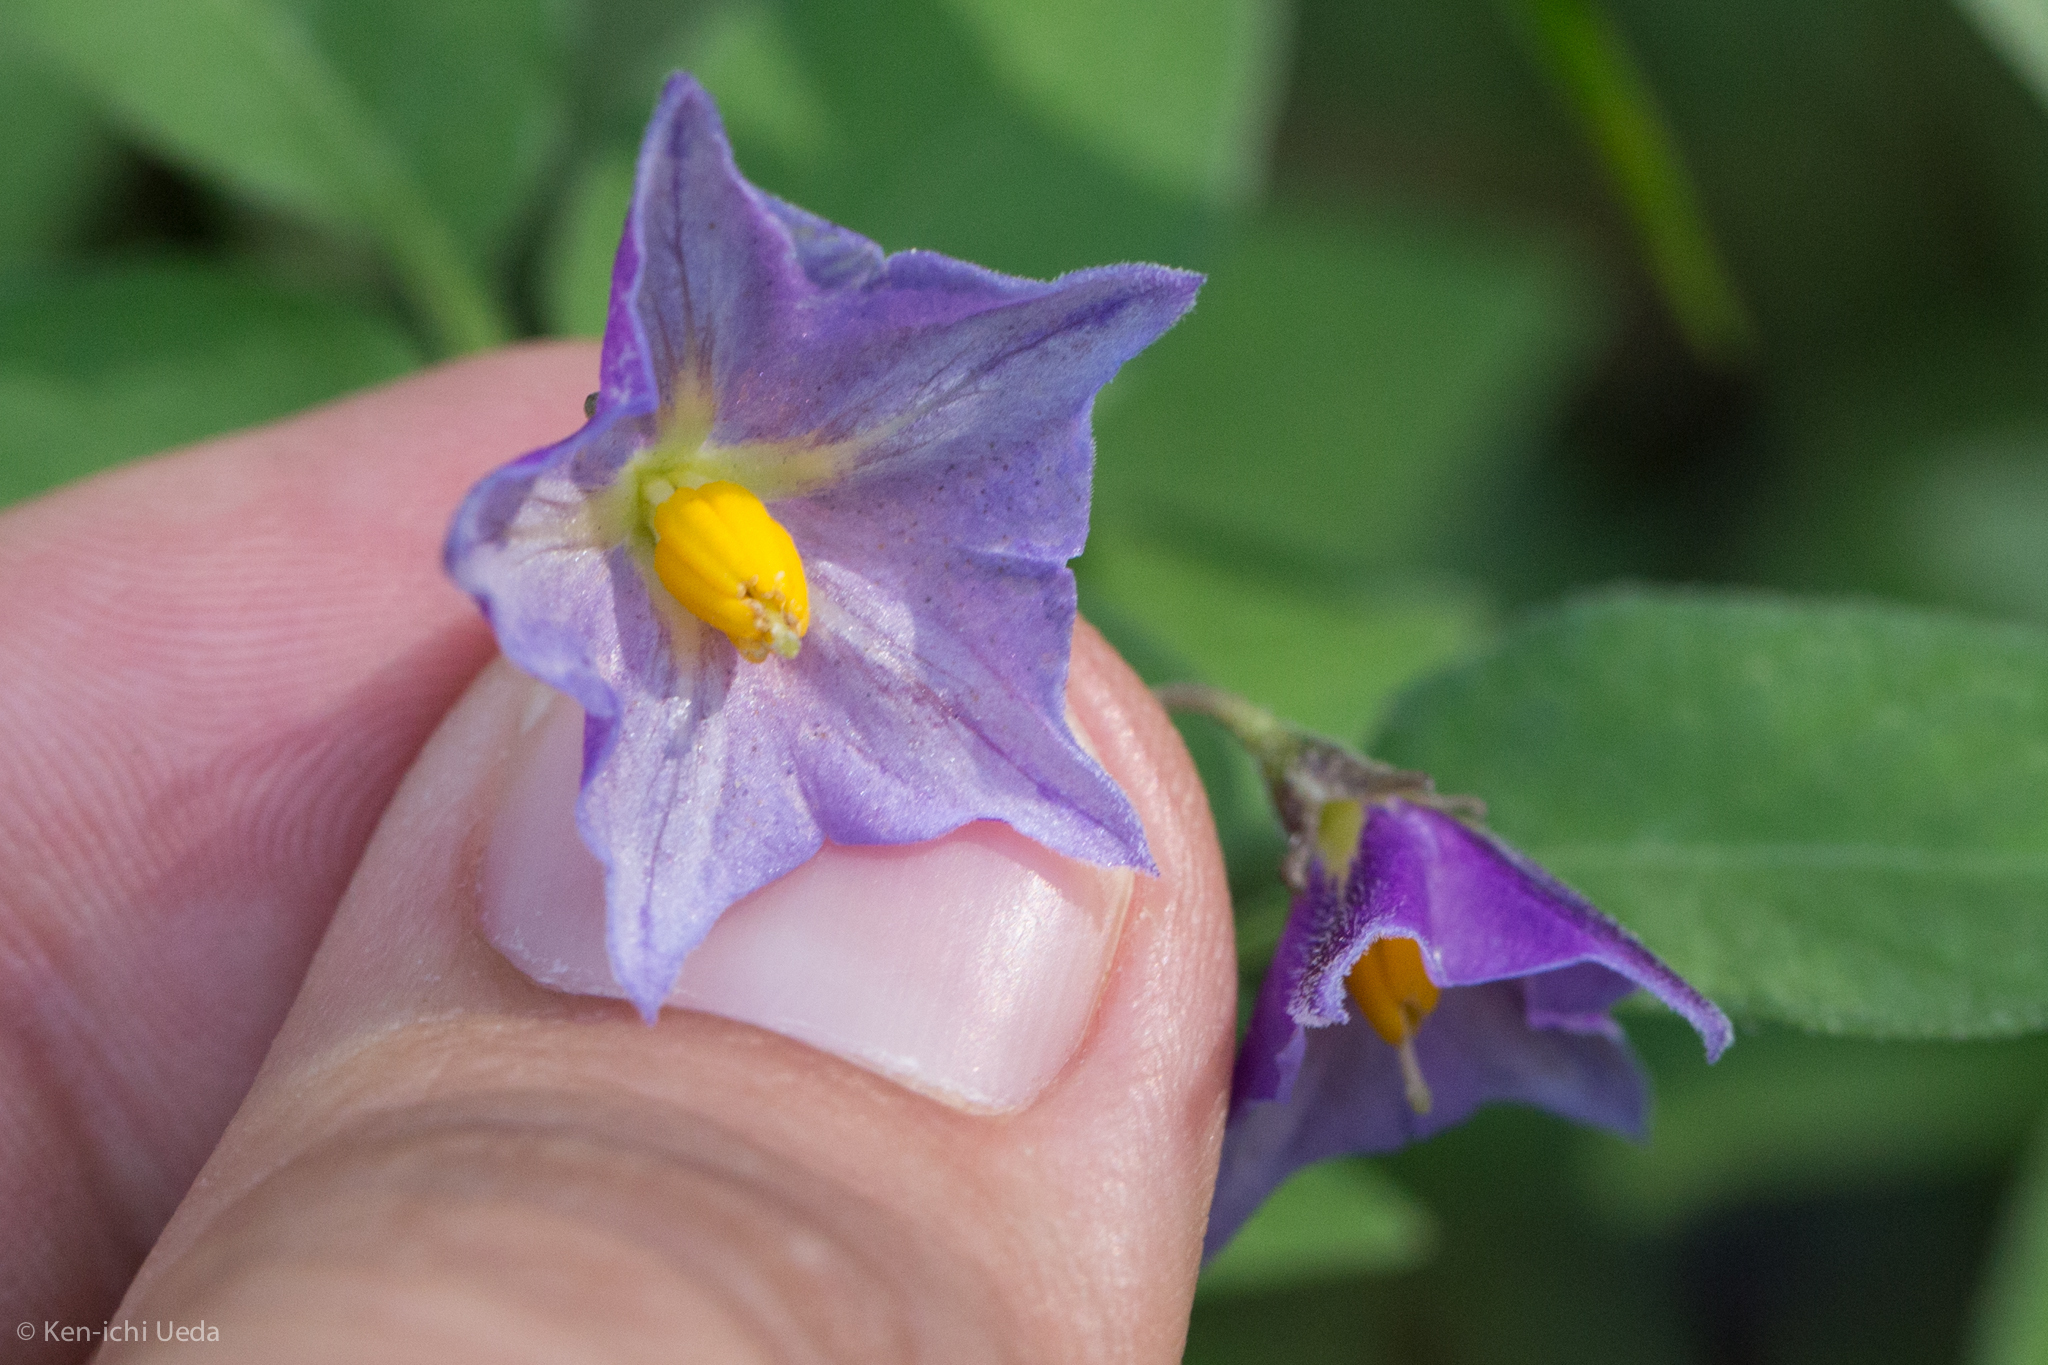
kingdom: Plantae
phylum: Tracheophyta
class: Magnoliopsida
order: Solanales
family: Solanaceae
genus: Solanum
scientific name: Solanum stoloniferum
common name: Fendler's nighshade
